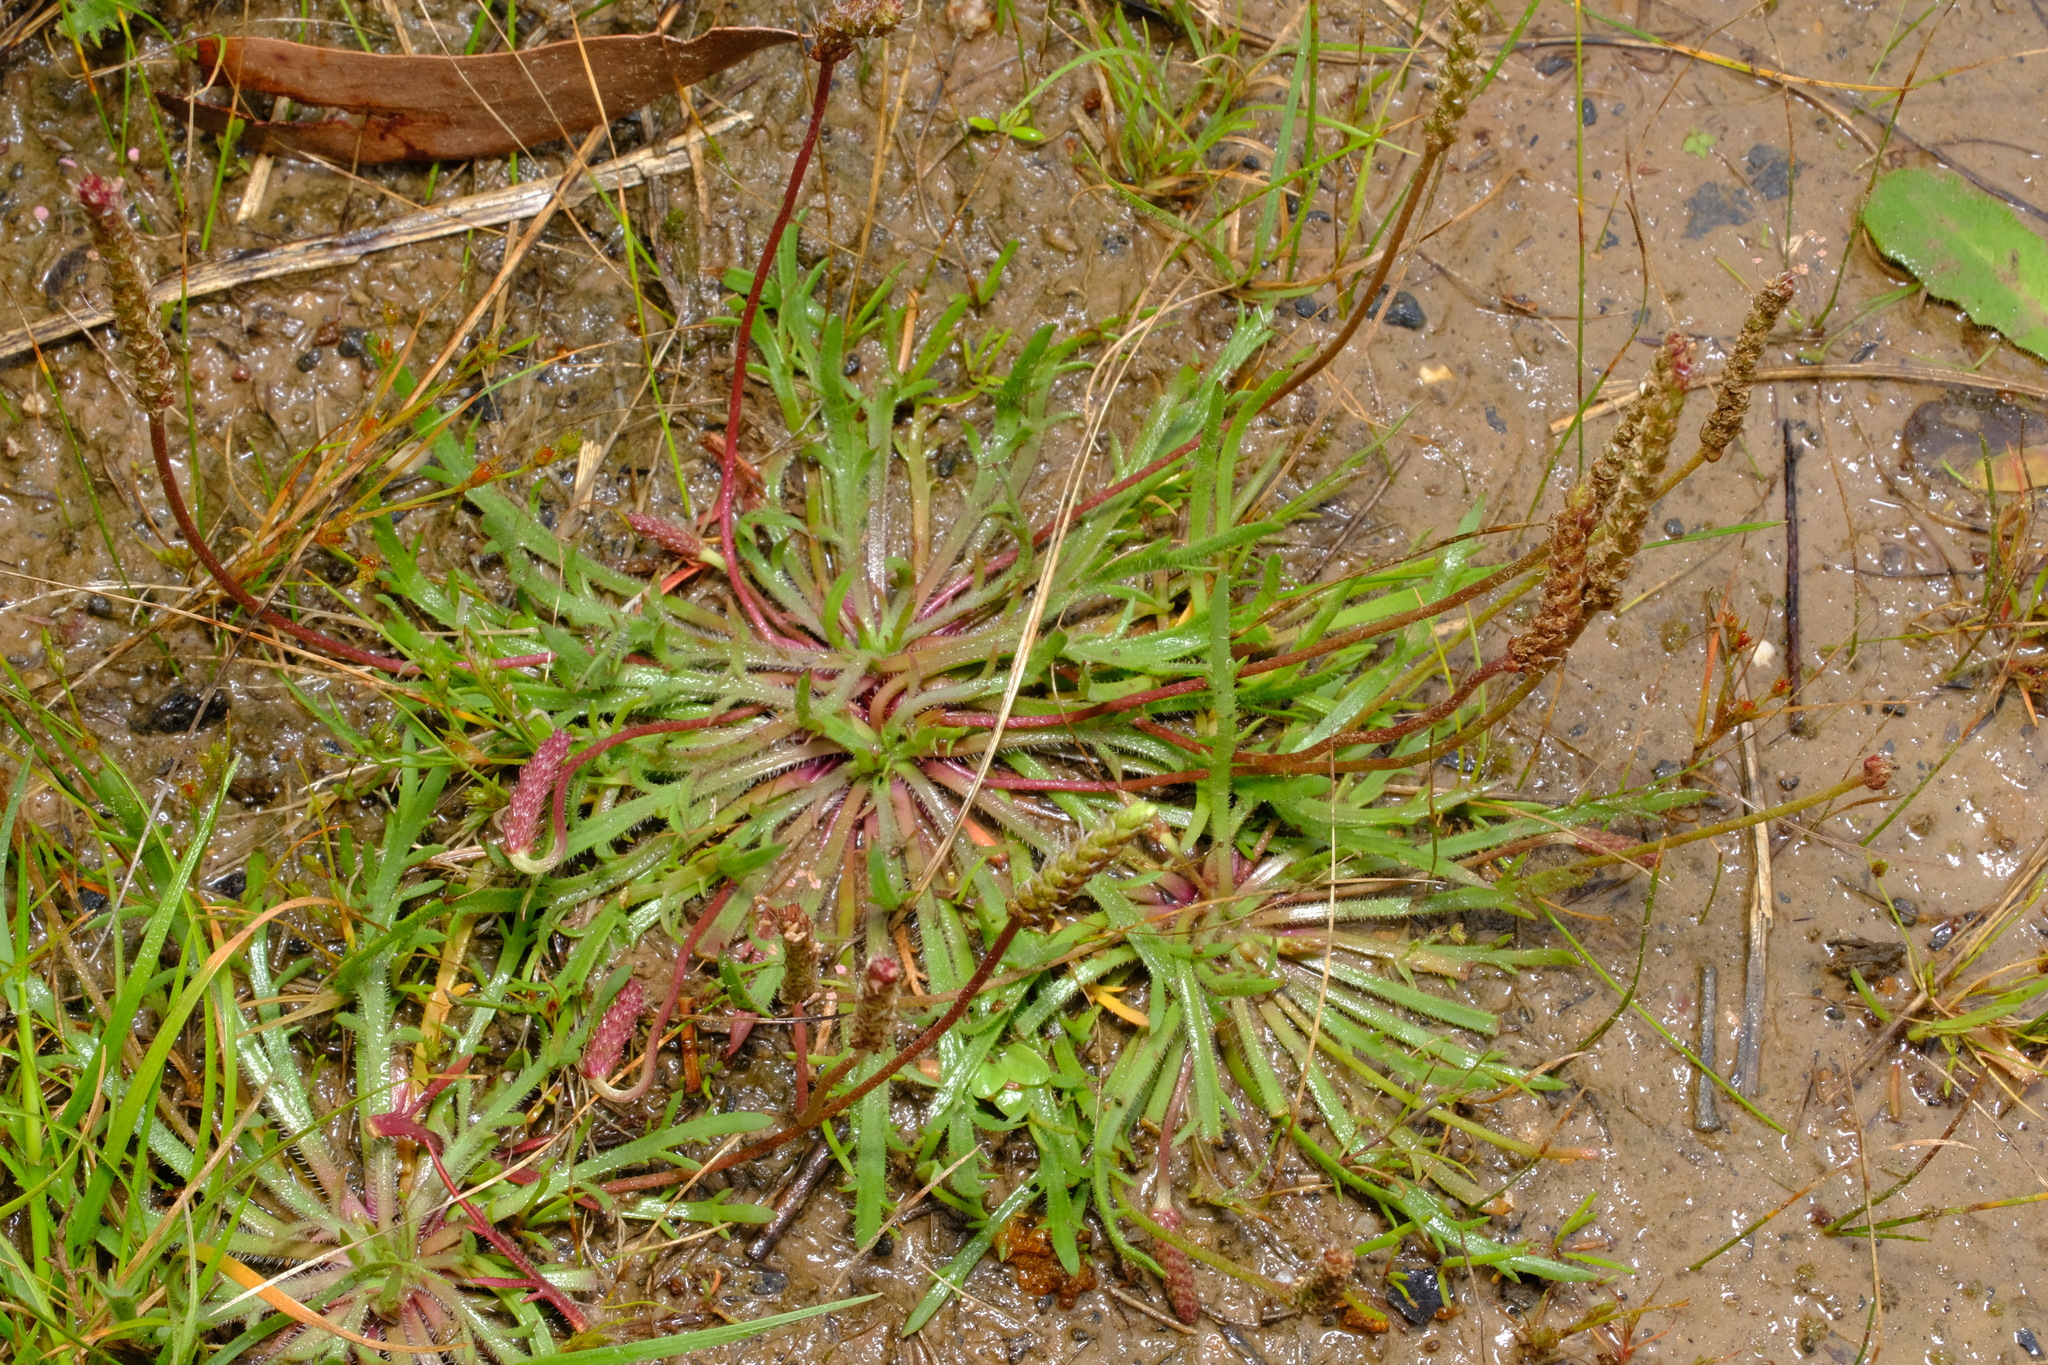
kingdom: Plantae
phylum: Tracheophyta
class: Magnoliopsida
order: Lamiales
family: Plantaginaceae
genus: Plantago
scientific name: Plantago coronopus
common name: Buck's-horn plantain
